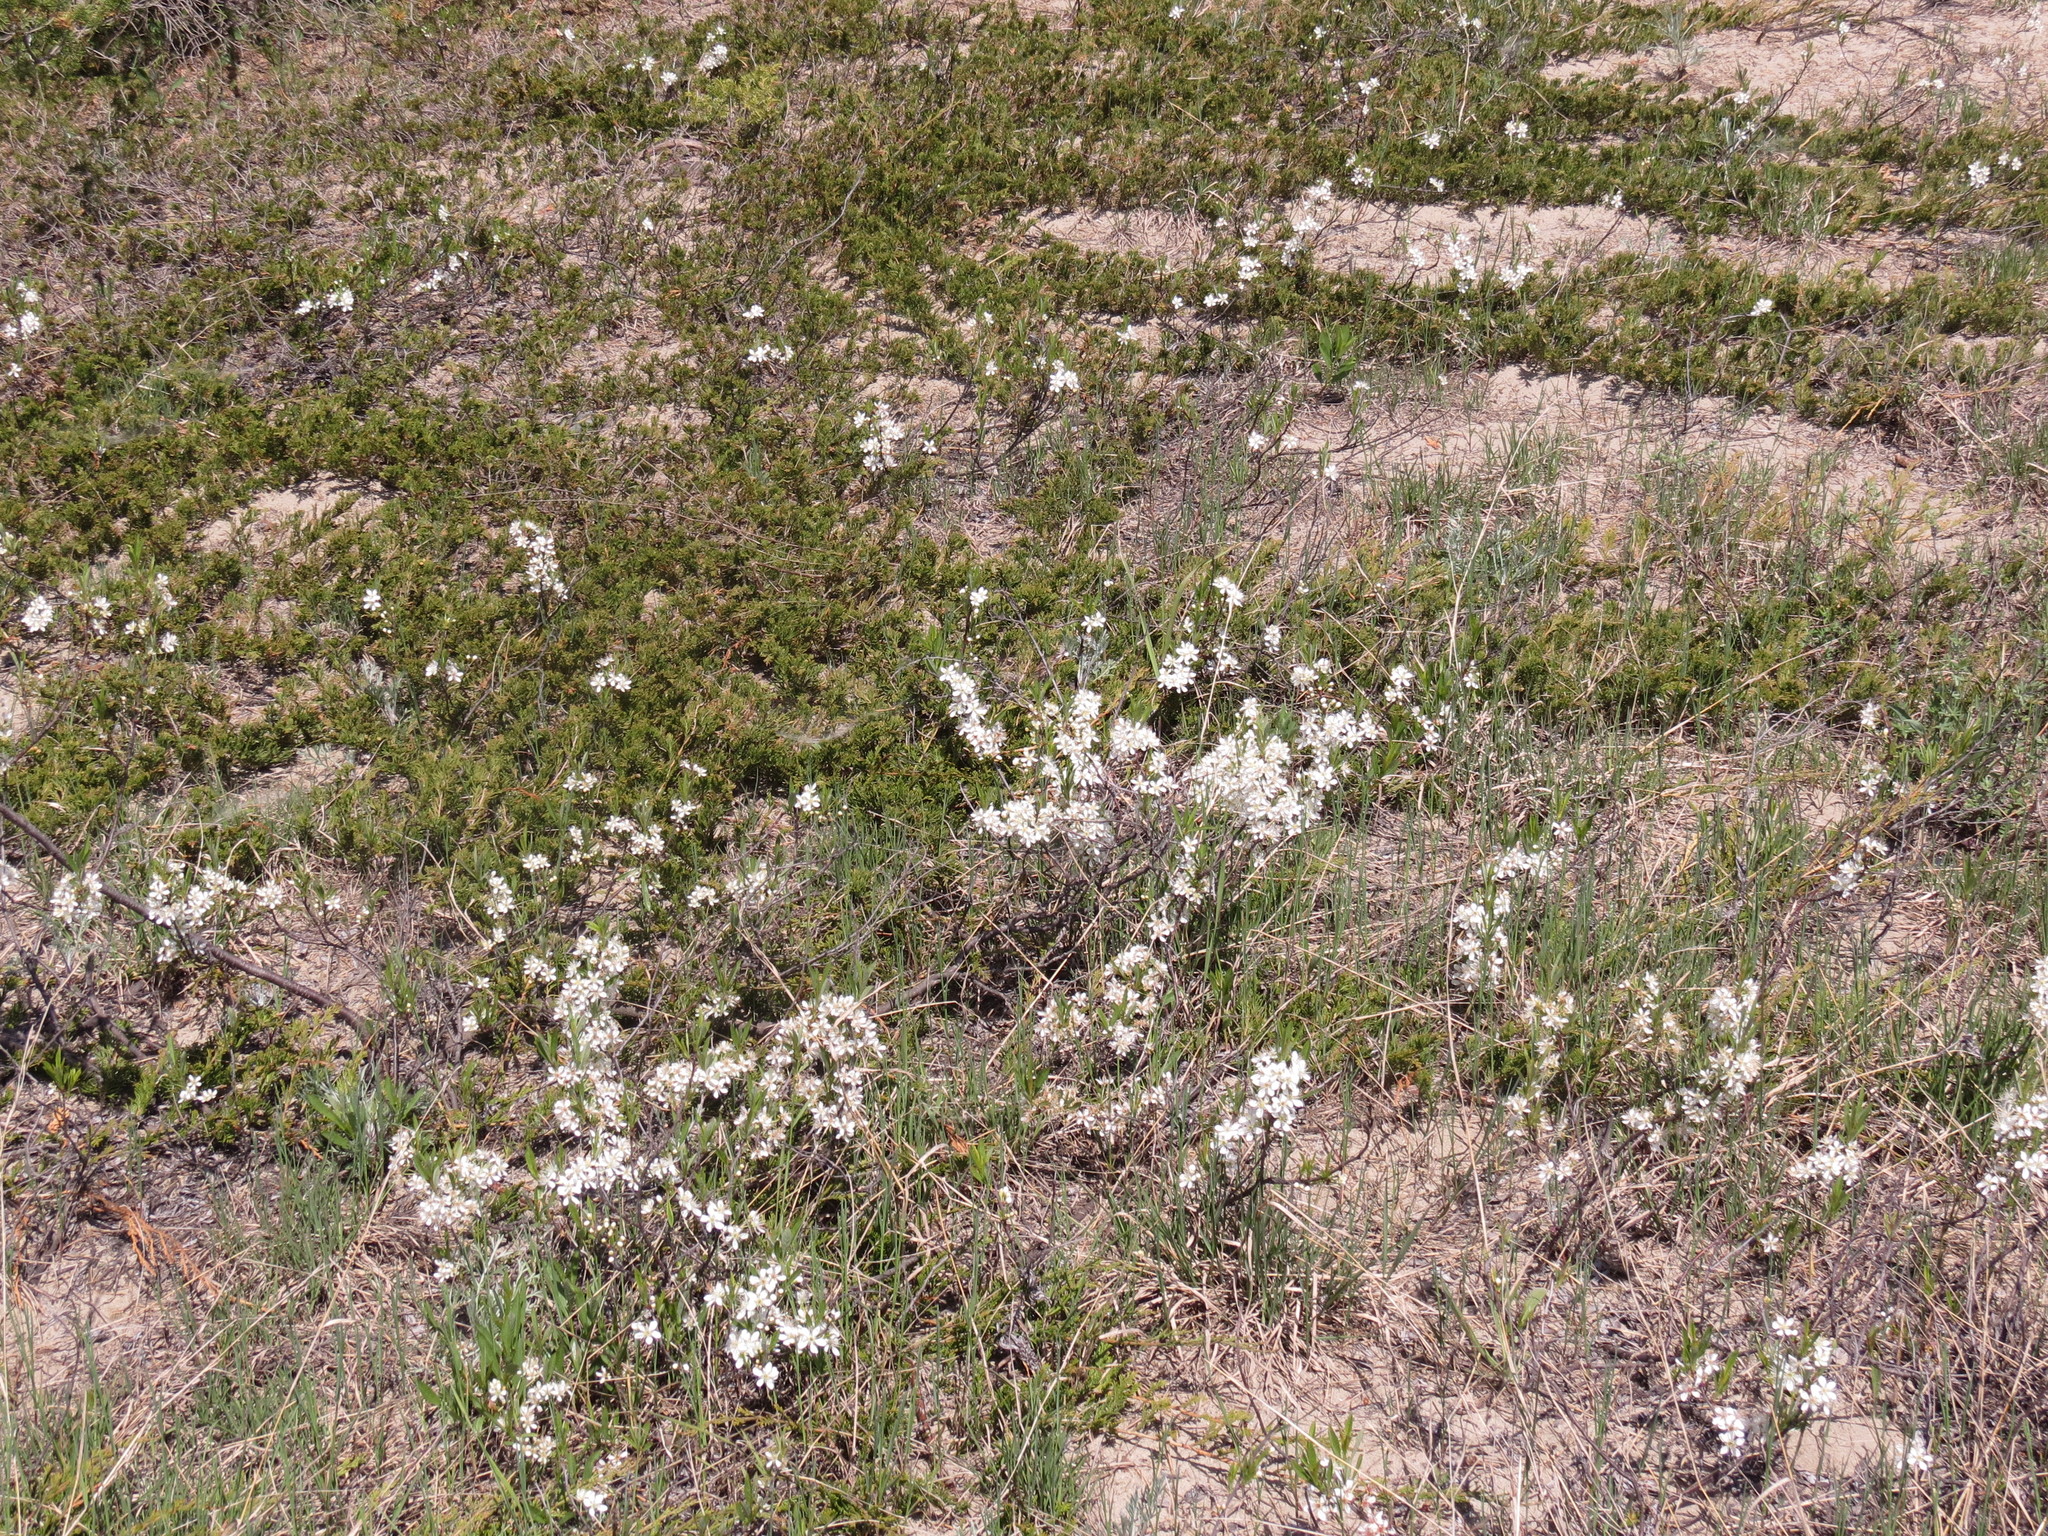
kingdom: Plantae
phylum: Tracheophyta
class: Magnoliopsida
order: Rosales
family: Rosaceae
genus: Prunus
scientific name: Prunus pumila
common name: Dwarf cherry
